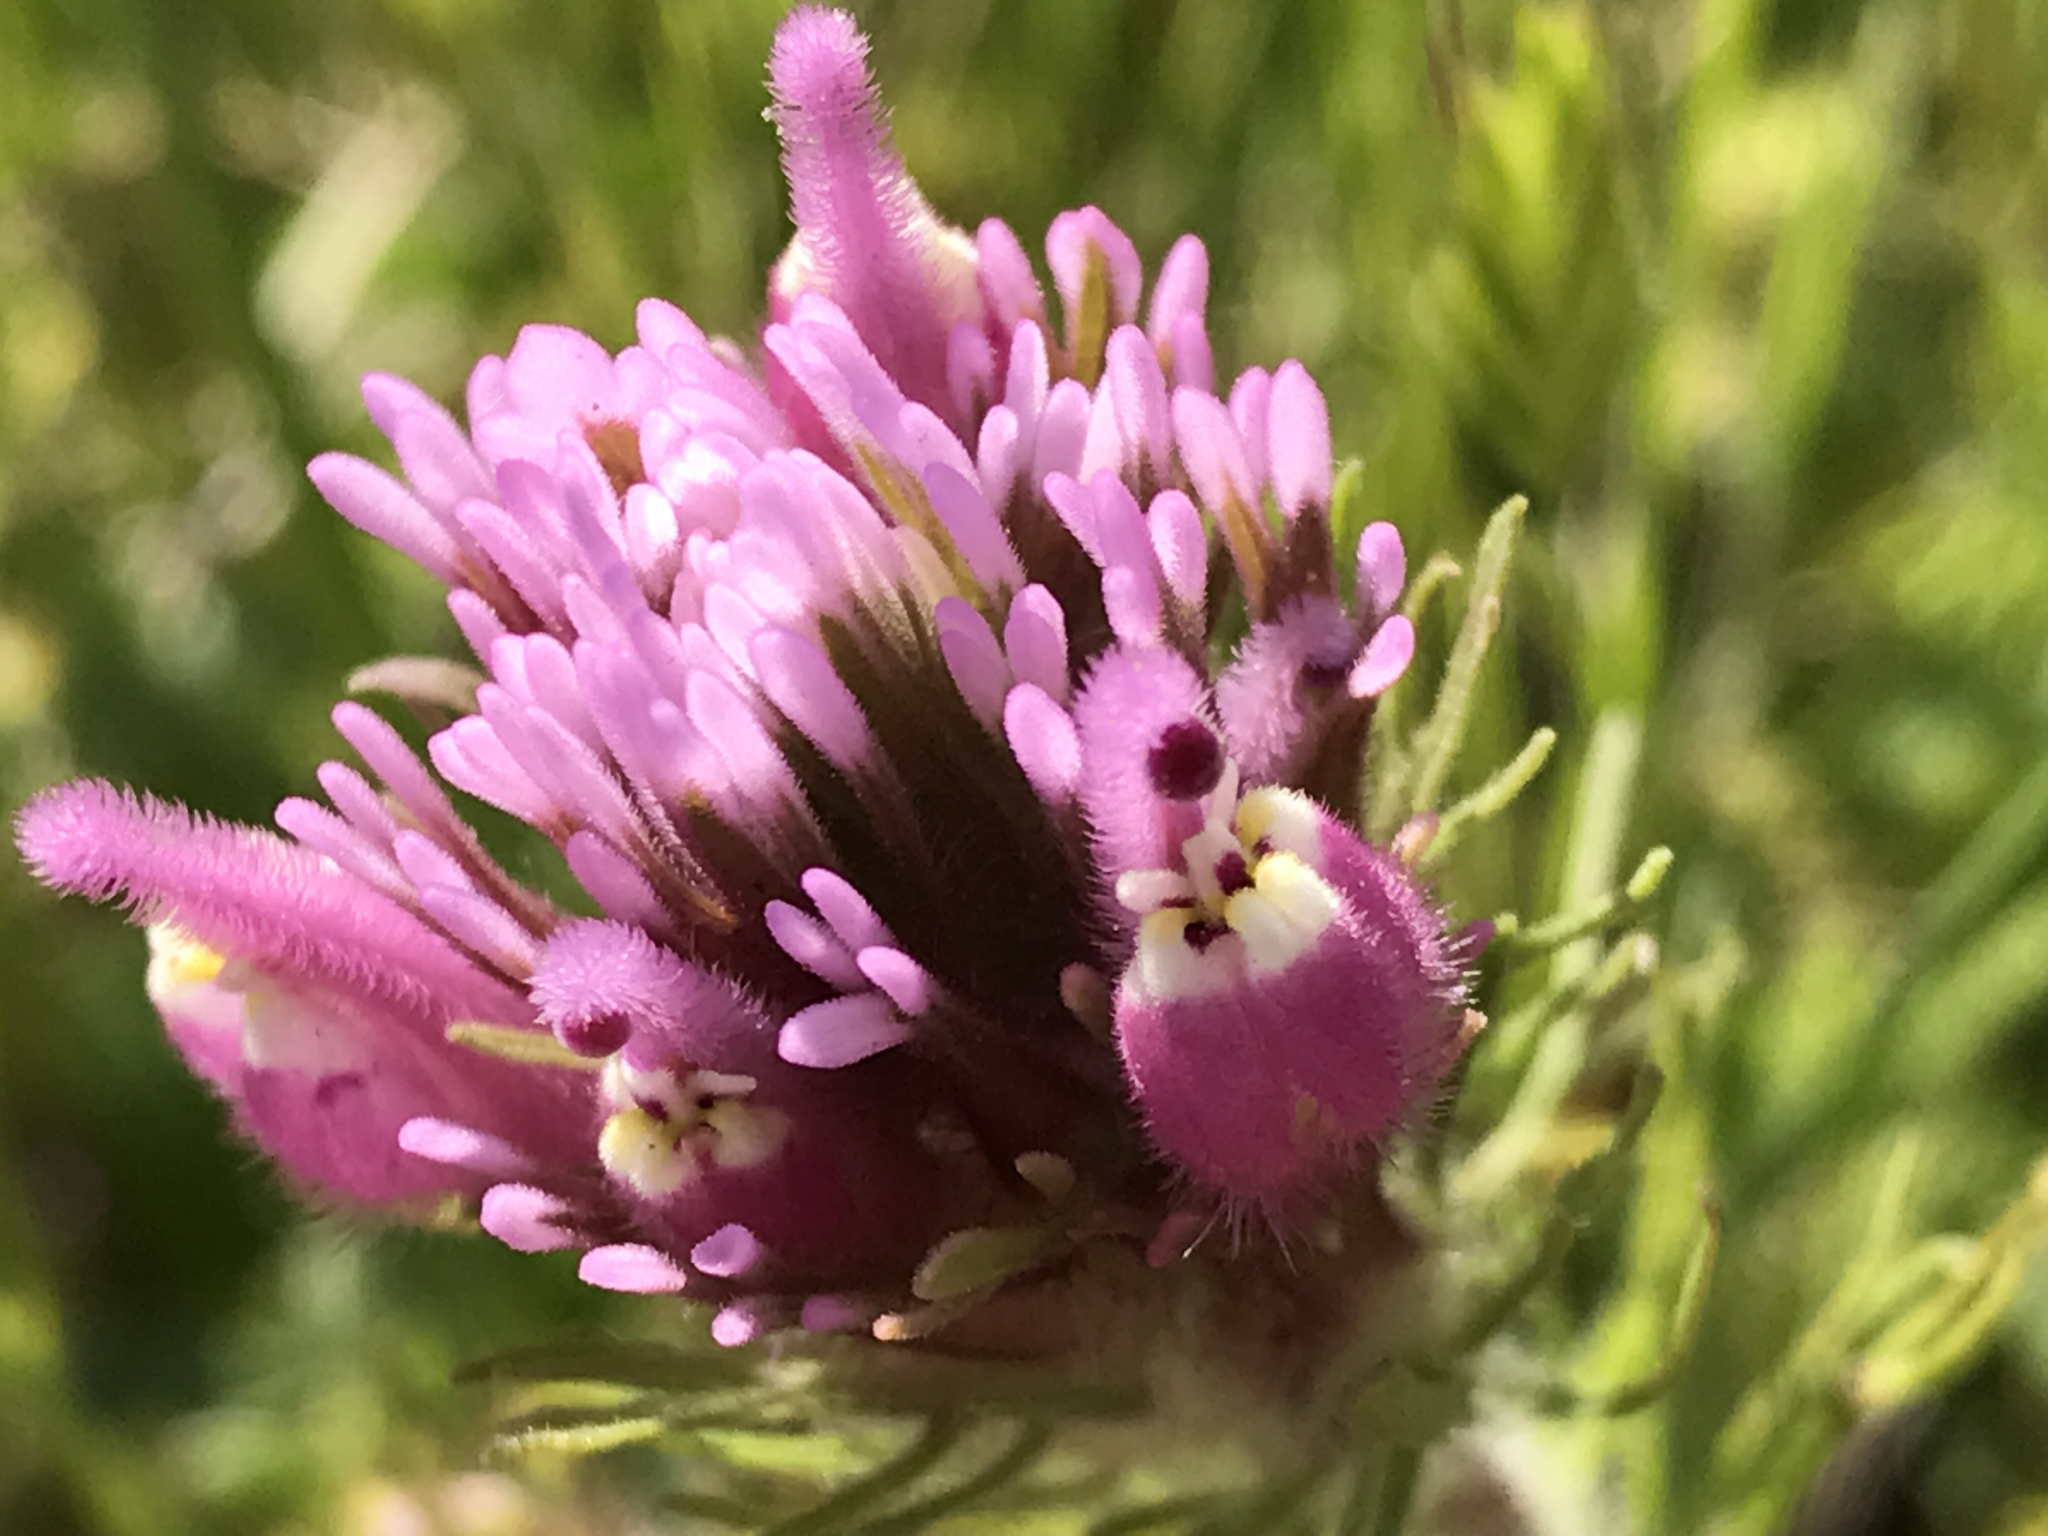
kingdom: Plantae
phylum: Tracheophyta
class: Magnoliopsida
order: Lamiales
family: Orobanchaceae
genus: Castilleja
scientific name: Castilleja exserta
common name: Purple owl-clover
